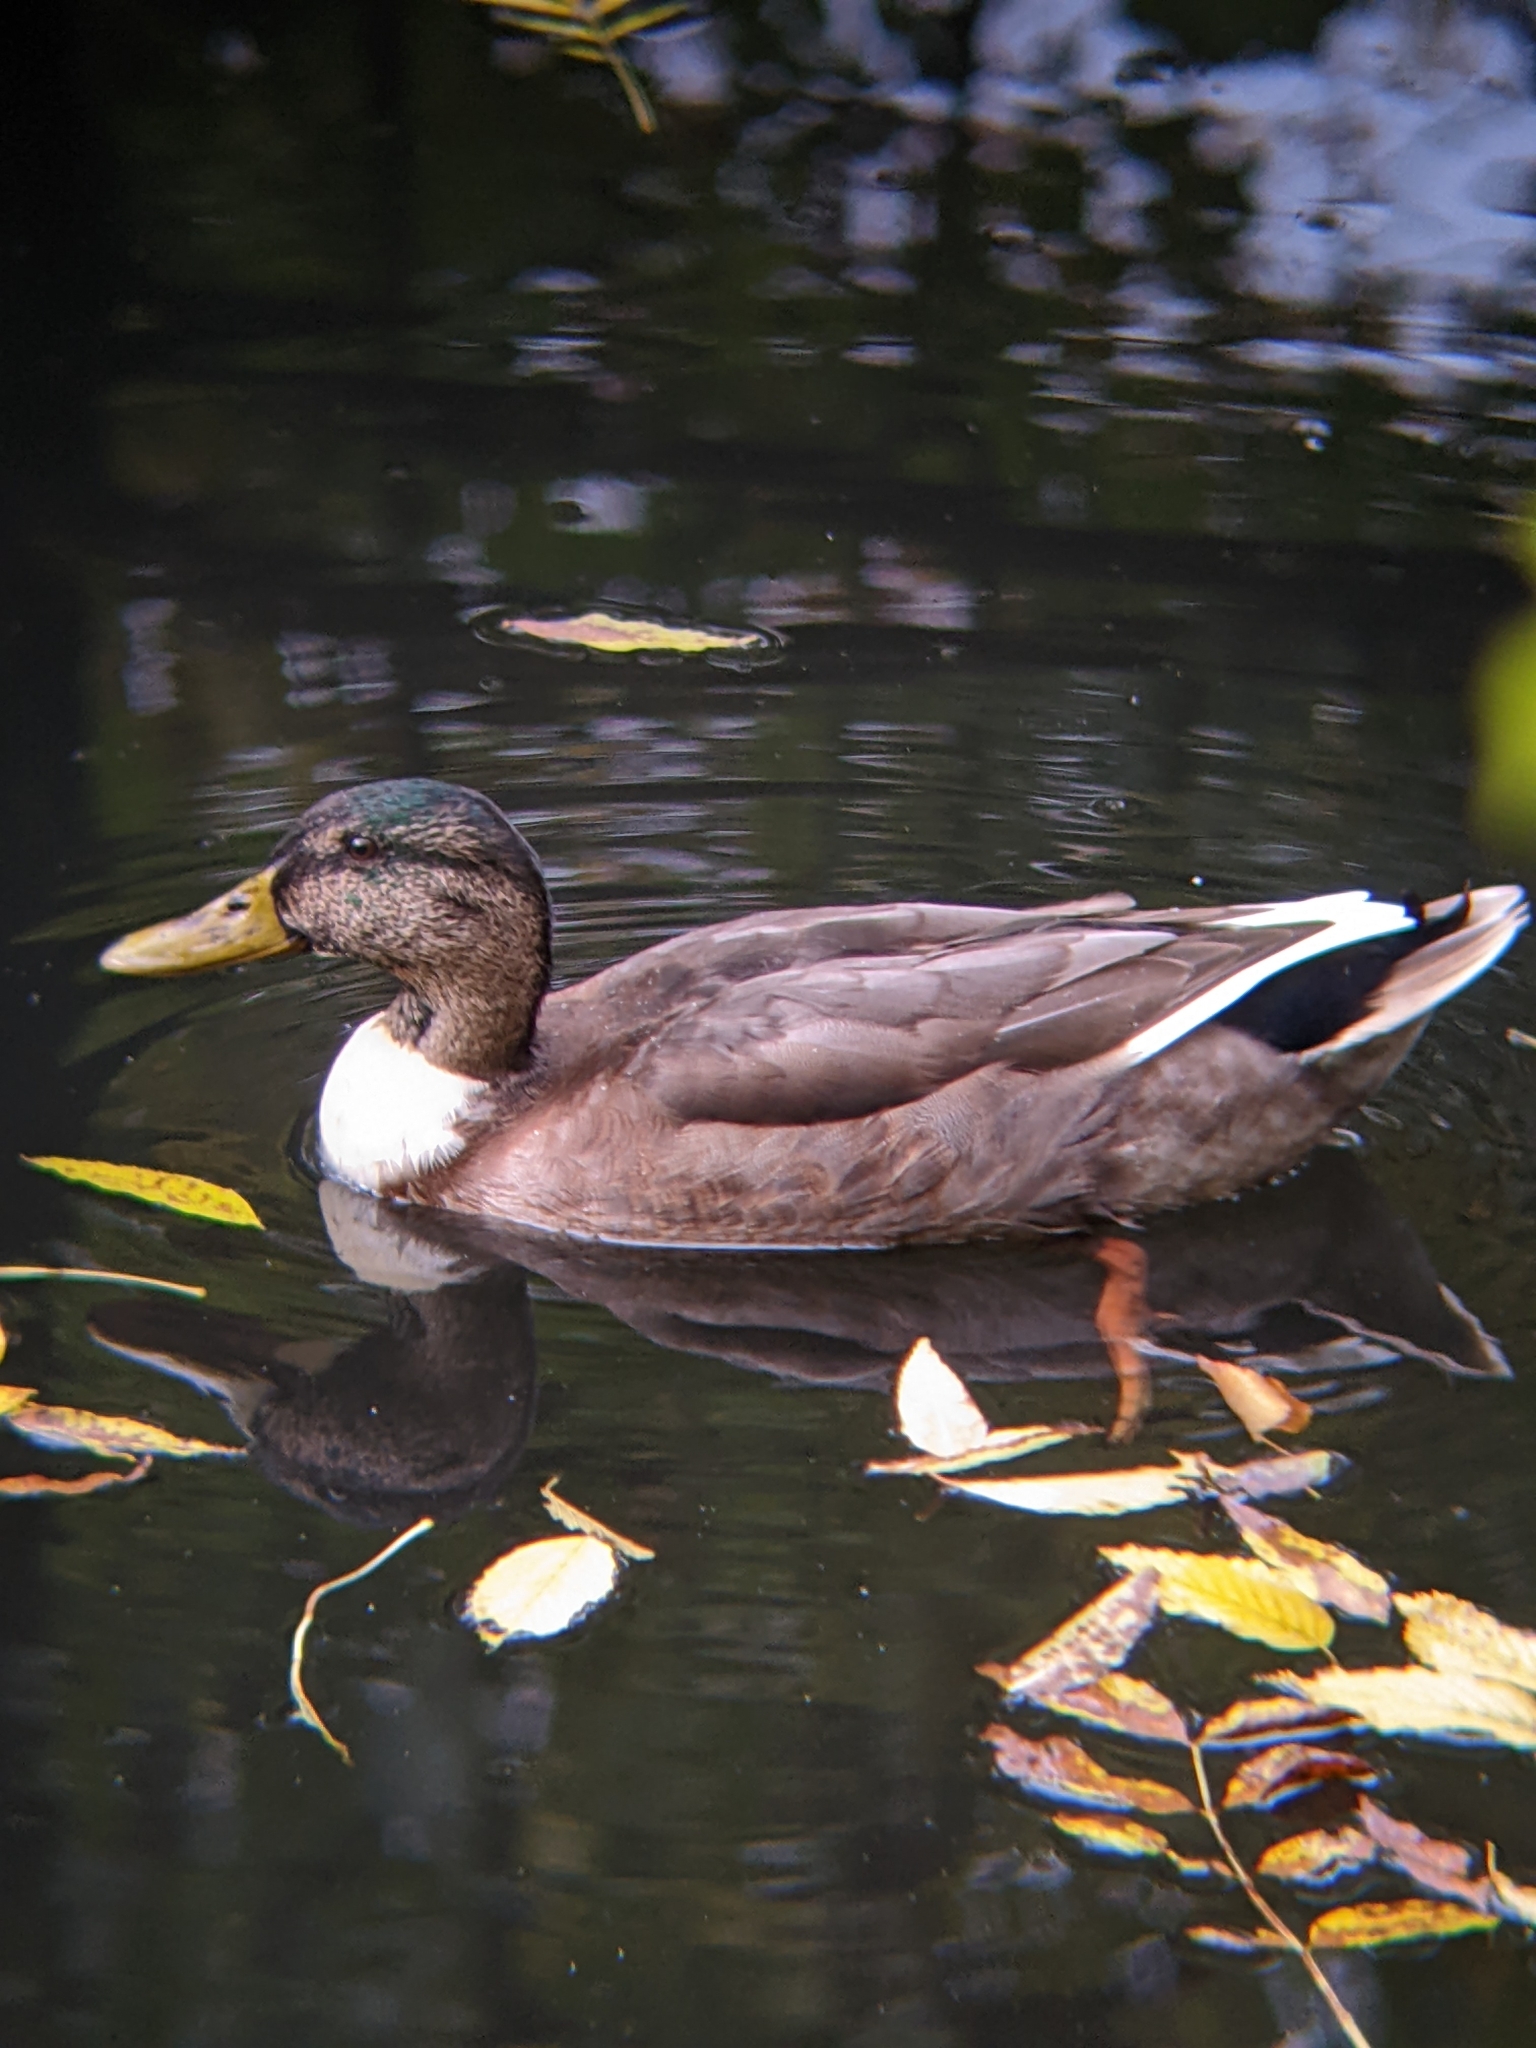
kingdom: Animalia
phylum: Chordata
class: Aves
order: Anseriformes
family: Anatidae
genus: Anas
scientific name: Anas platyrhynchos
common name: Mallard
